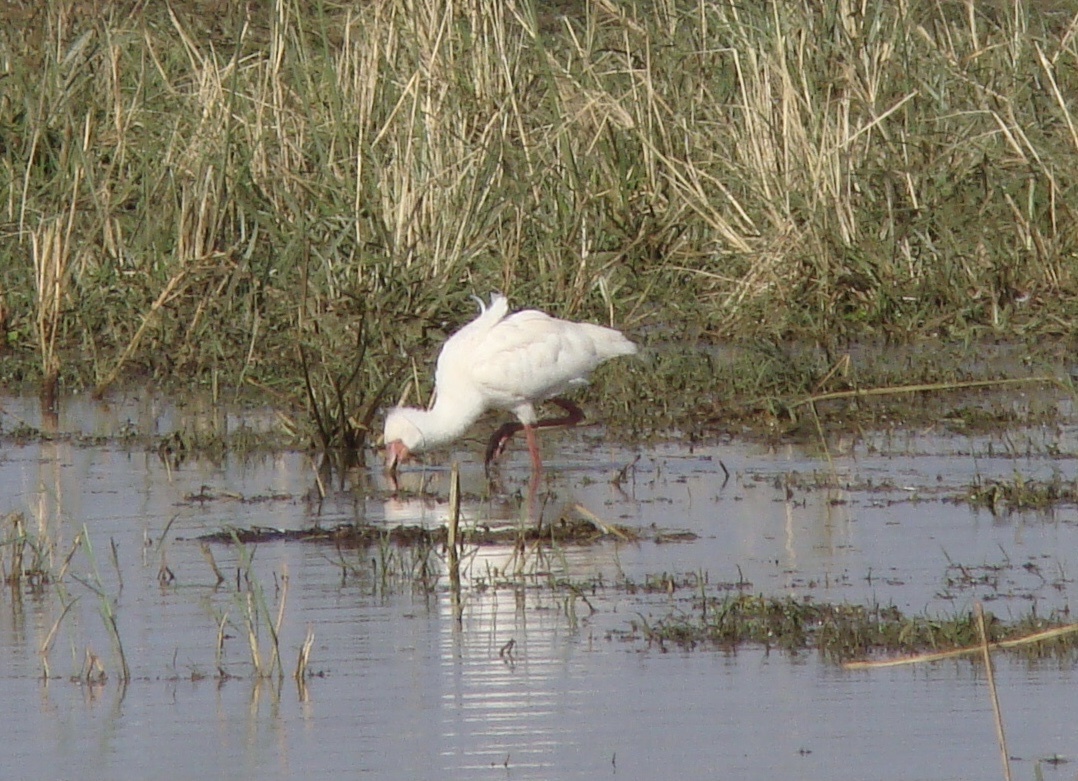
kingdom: Animalia
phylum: Chordata
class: Aves
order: Pelecaniformes
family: Threskiornithidae
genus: Platalea
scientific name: Platalea alba
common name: African spoonbill
